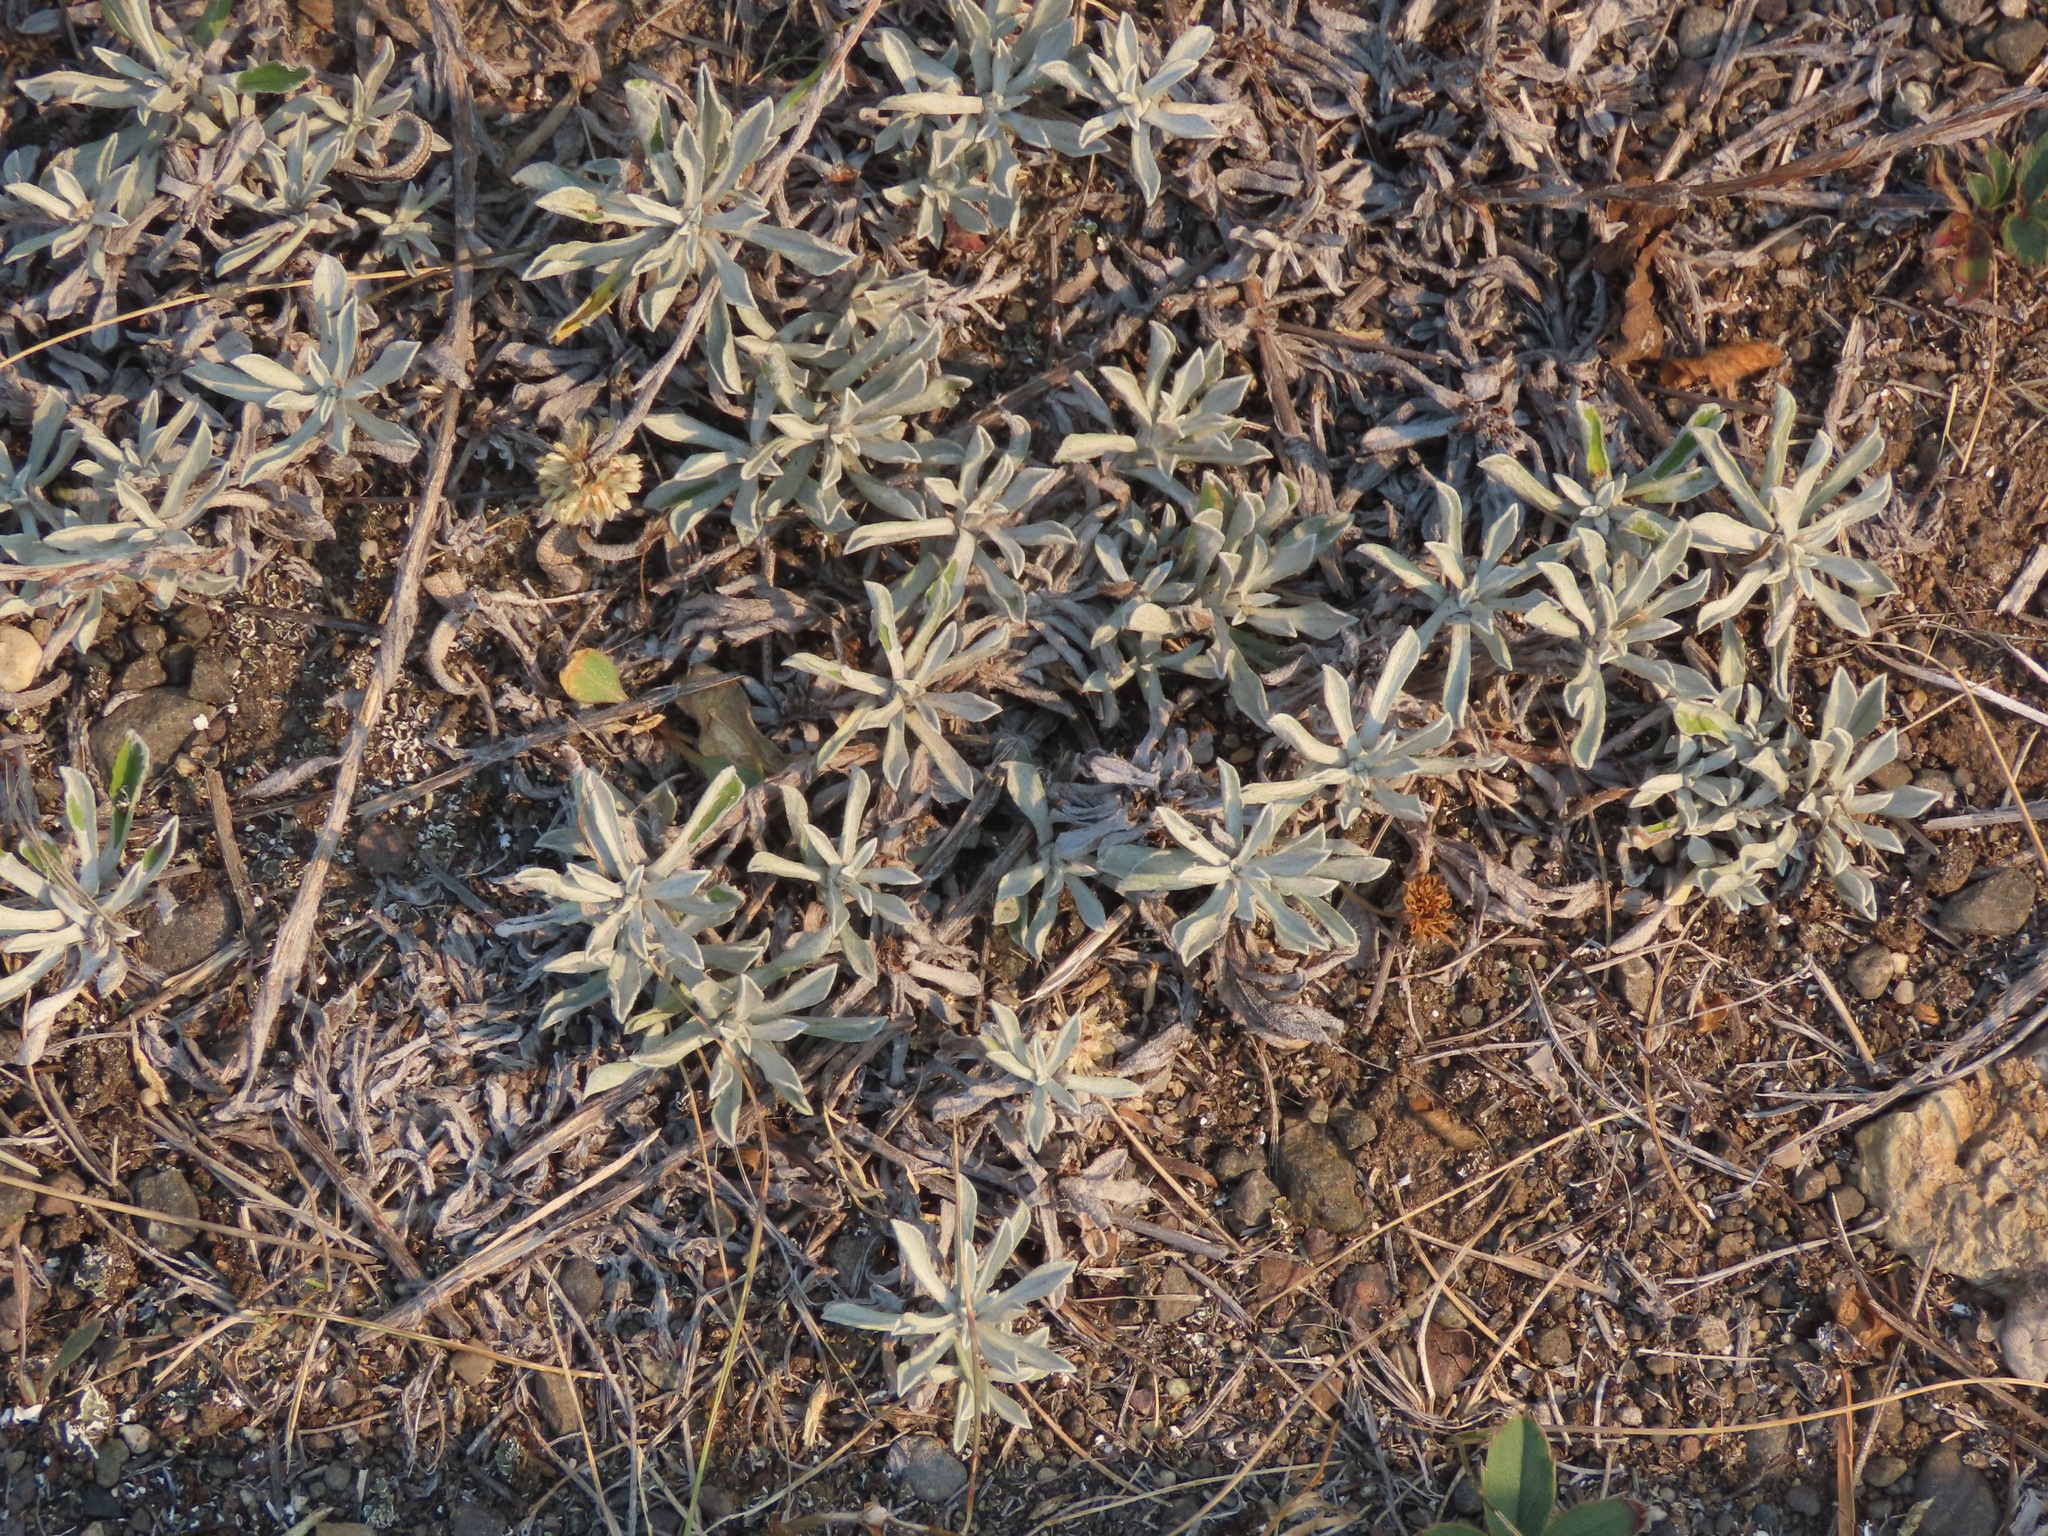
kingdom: Plantae
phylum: Tracheophyta
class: Magnoliopsida
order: Asterales
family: Asteraceae
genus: Antennaria
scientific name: Antennaria umbrinella
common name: Brown pussytoes
